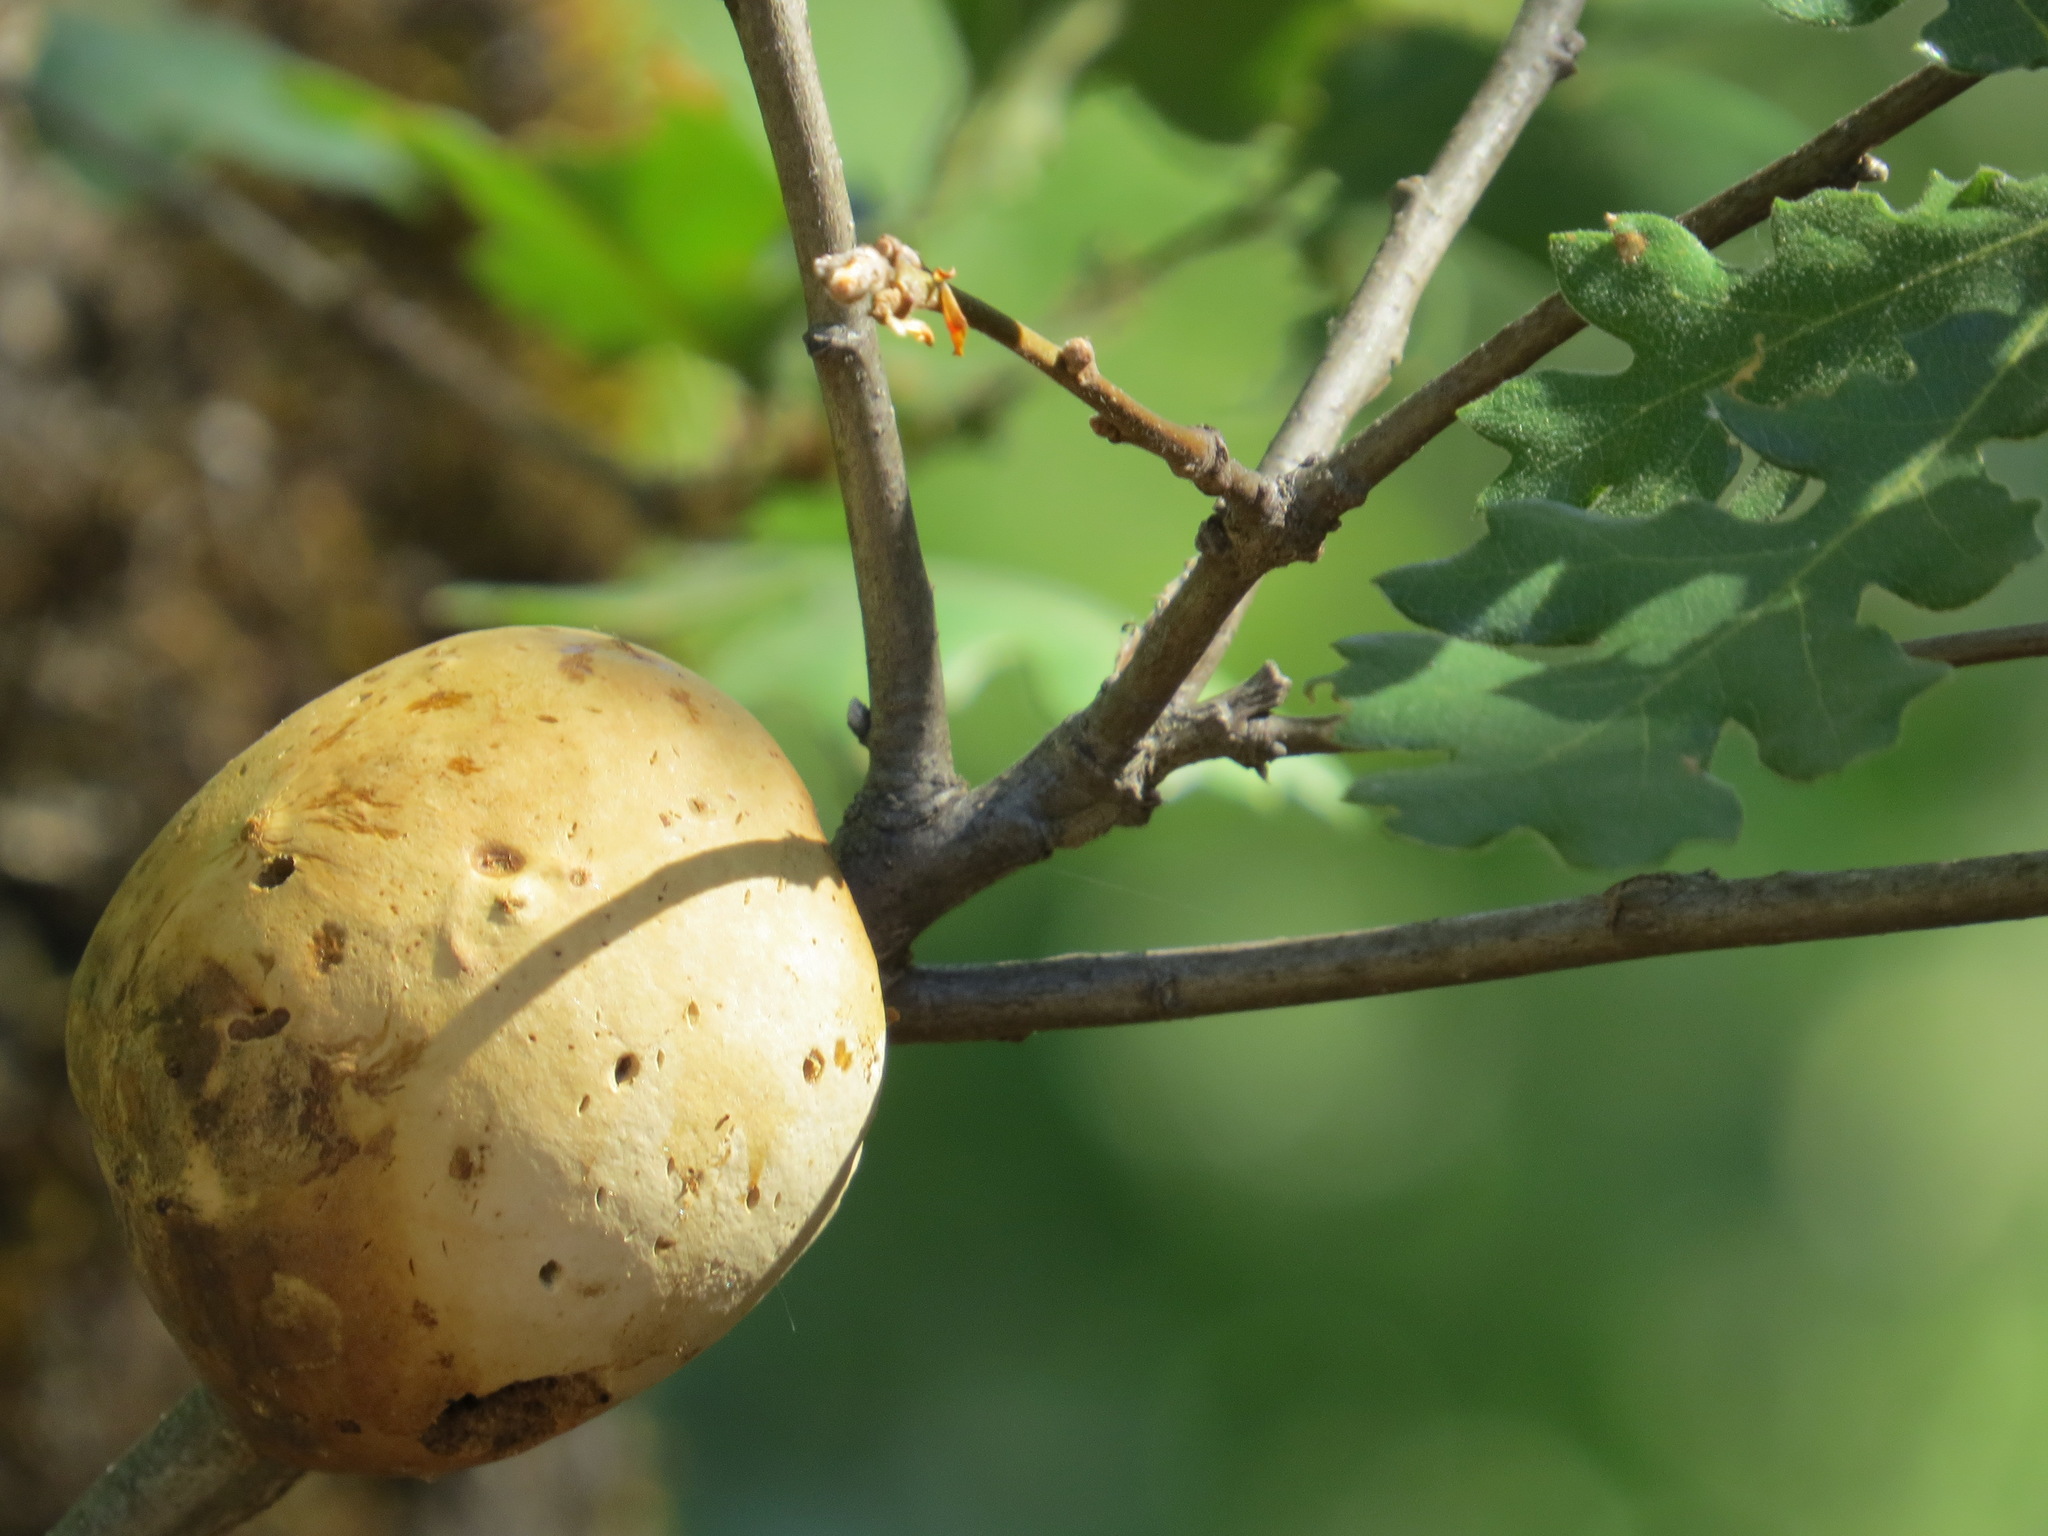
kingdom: Animalia
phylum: Arthropoda
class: Insecta
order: Hymenoptera
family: Cynipidae
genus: Andricus
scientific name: Andricus quercuscalifornicus
